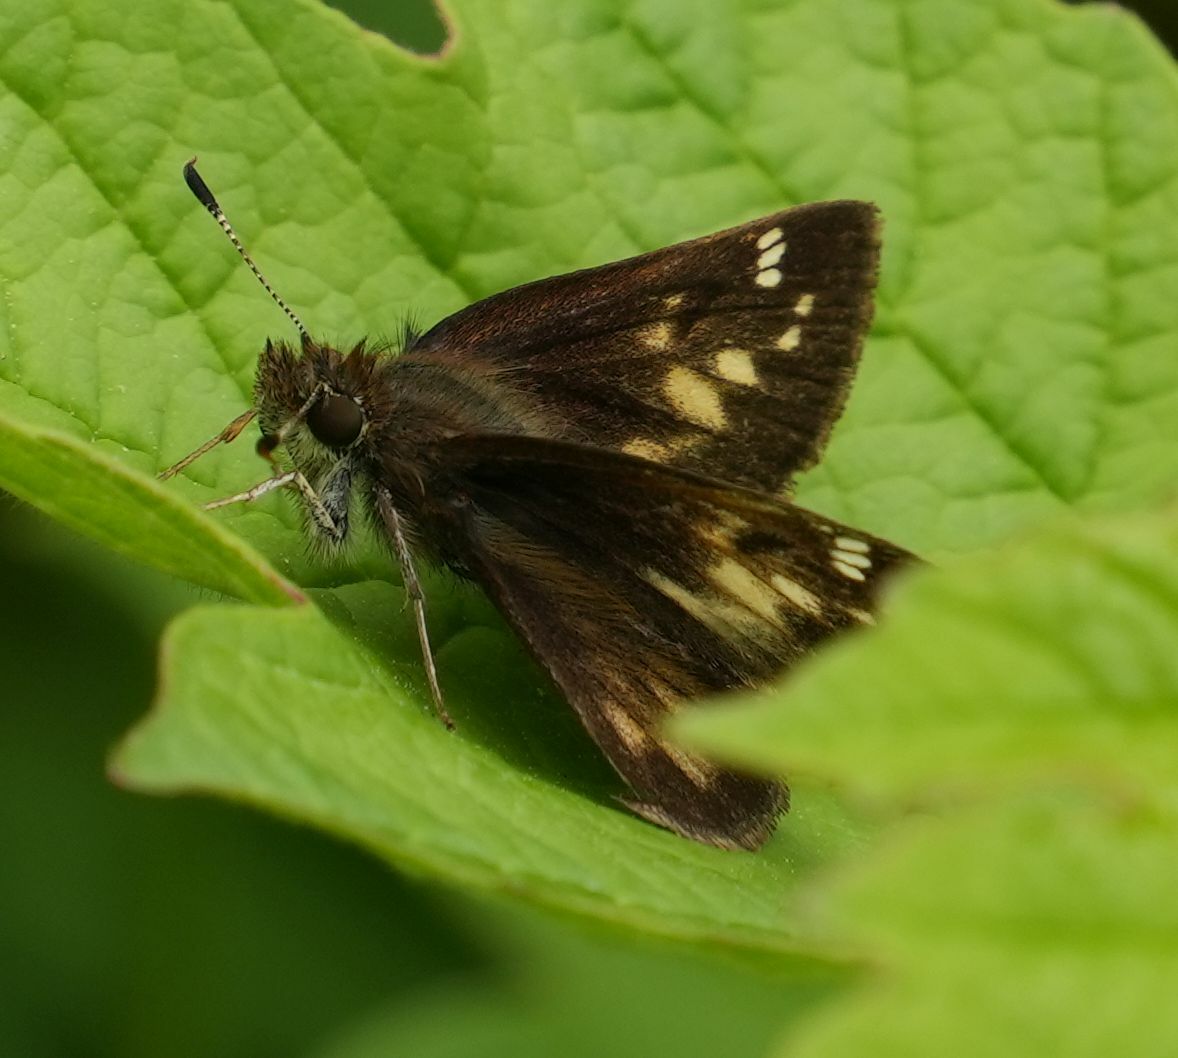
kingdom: Animalia
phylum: Arthropoda
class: Insecta
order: Lepidoptera
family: Hesperiidae
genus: Lon
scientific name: Lon hobomok
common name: Hobomok skipper
